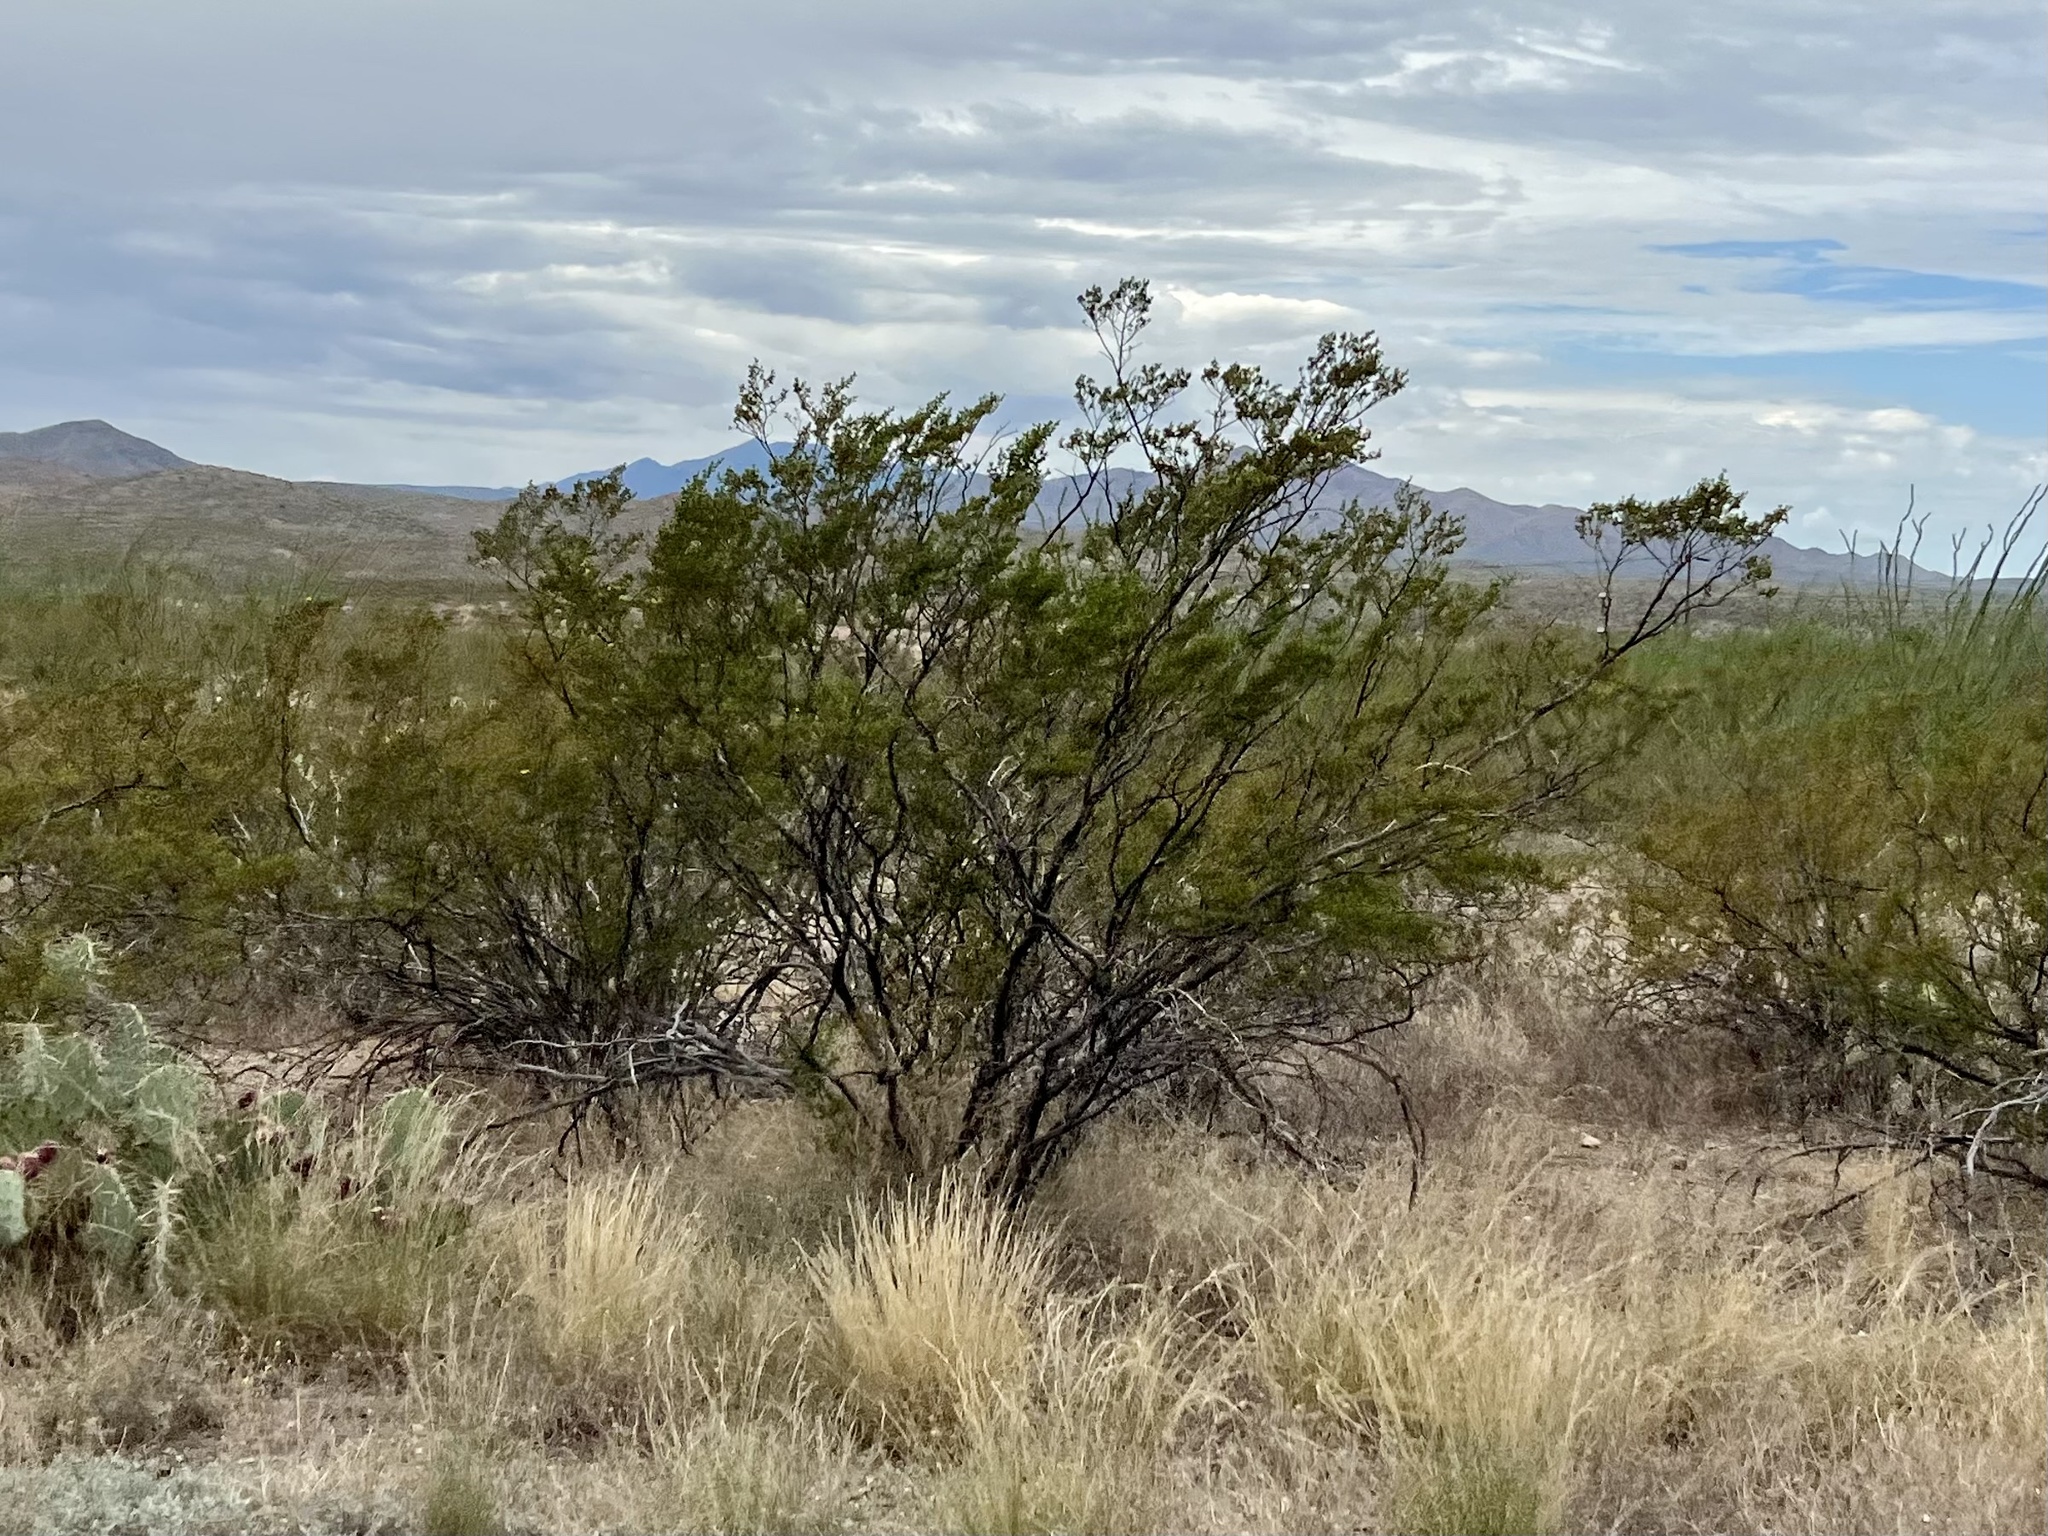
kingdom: Plantae
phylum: Tracheophyta
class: Magnoliopsida
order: Zygophyllales
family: Zygophyllaceae
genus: Larrea
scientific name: Larrea tridentata
